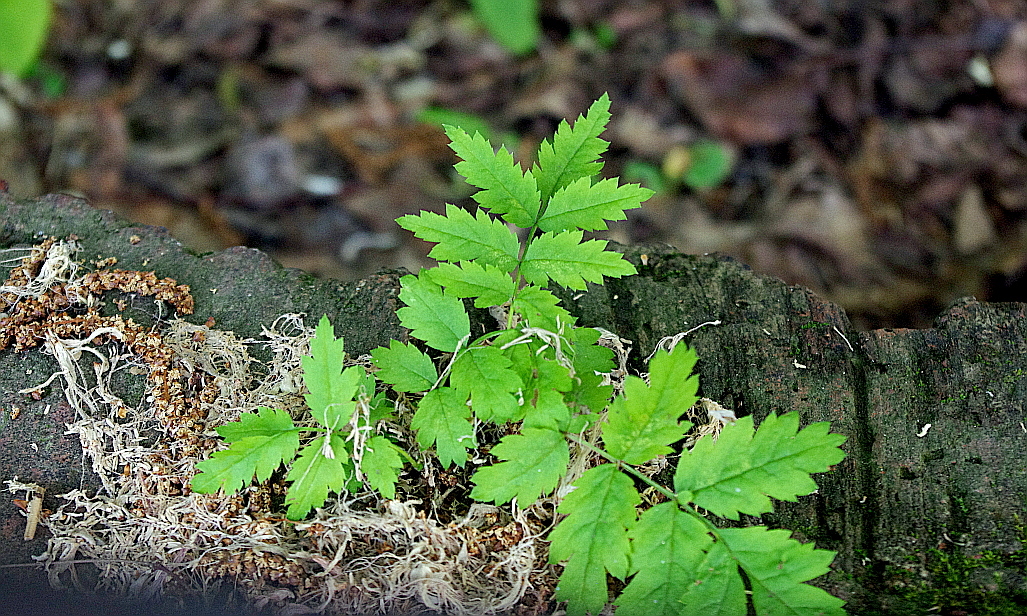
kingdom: Plantae
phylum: Tracheophyta
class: Magnoliopsida
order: Rosales
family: Rosaceae
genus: Sorbus
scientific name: Sorbus aucuparia
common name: Rowan
